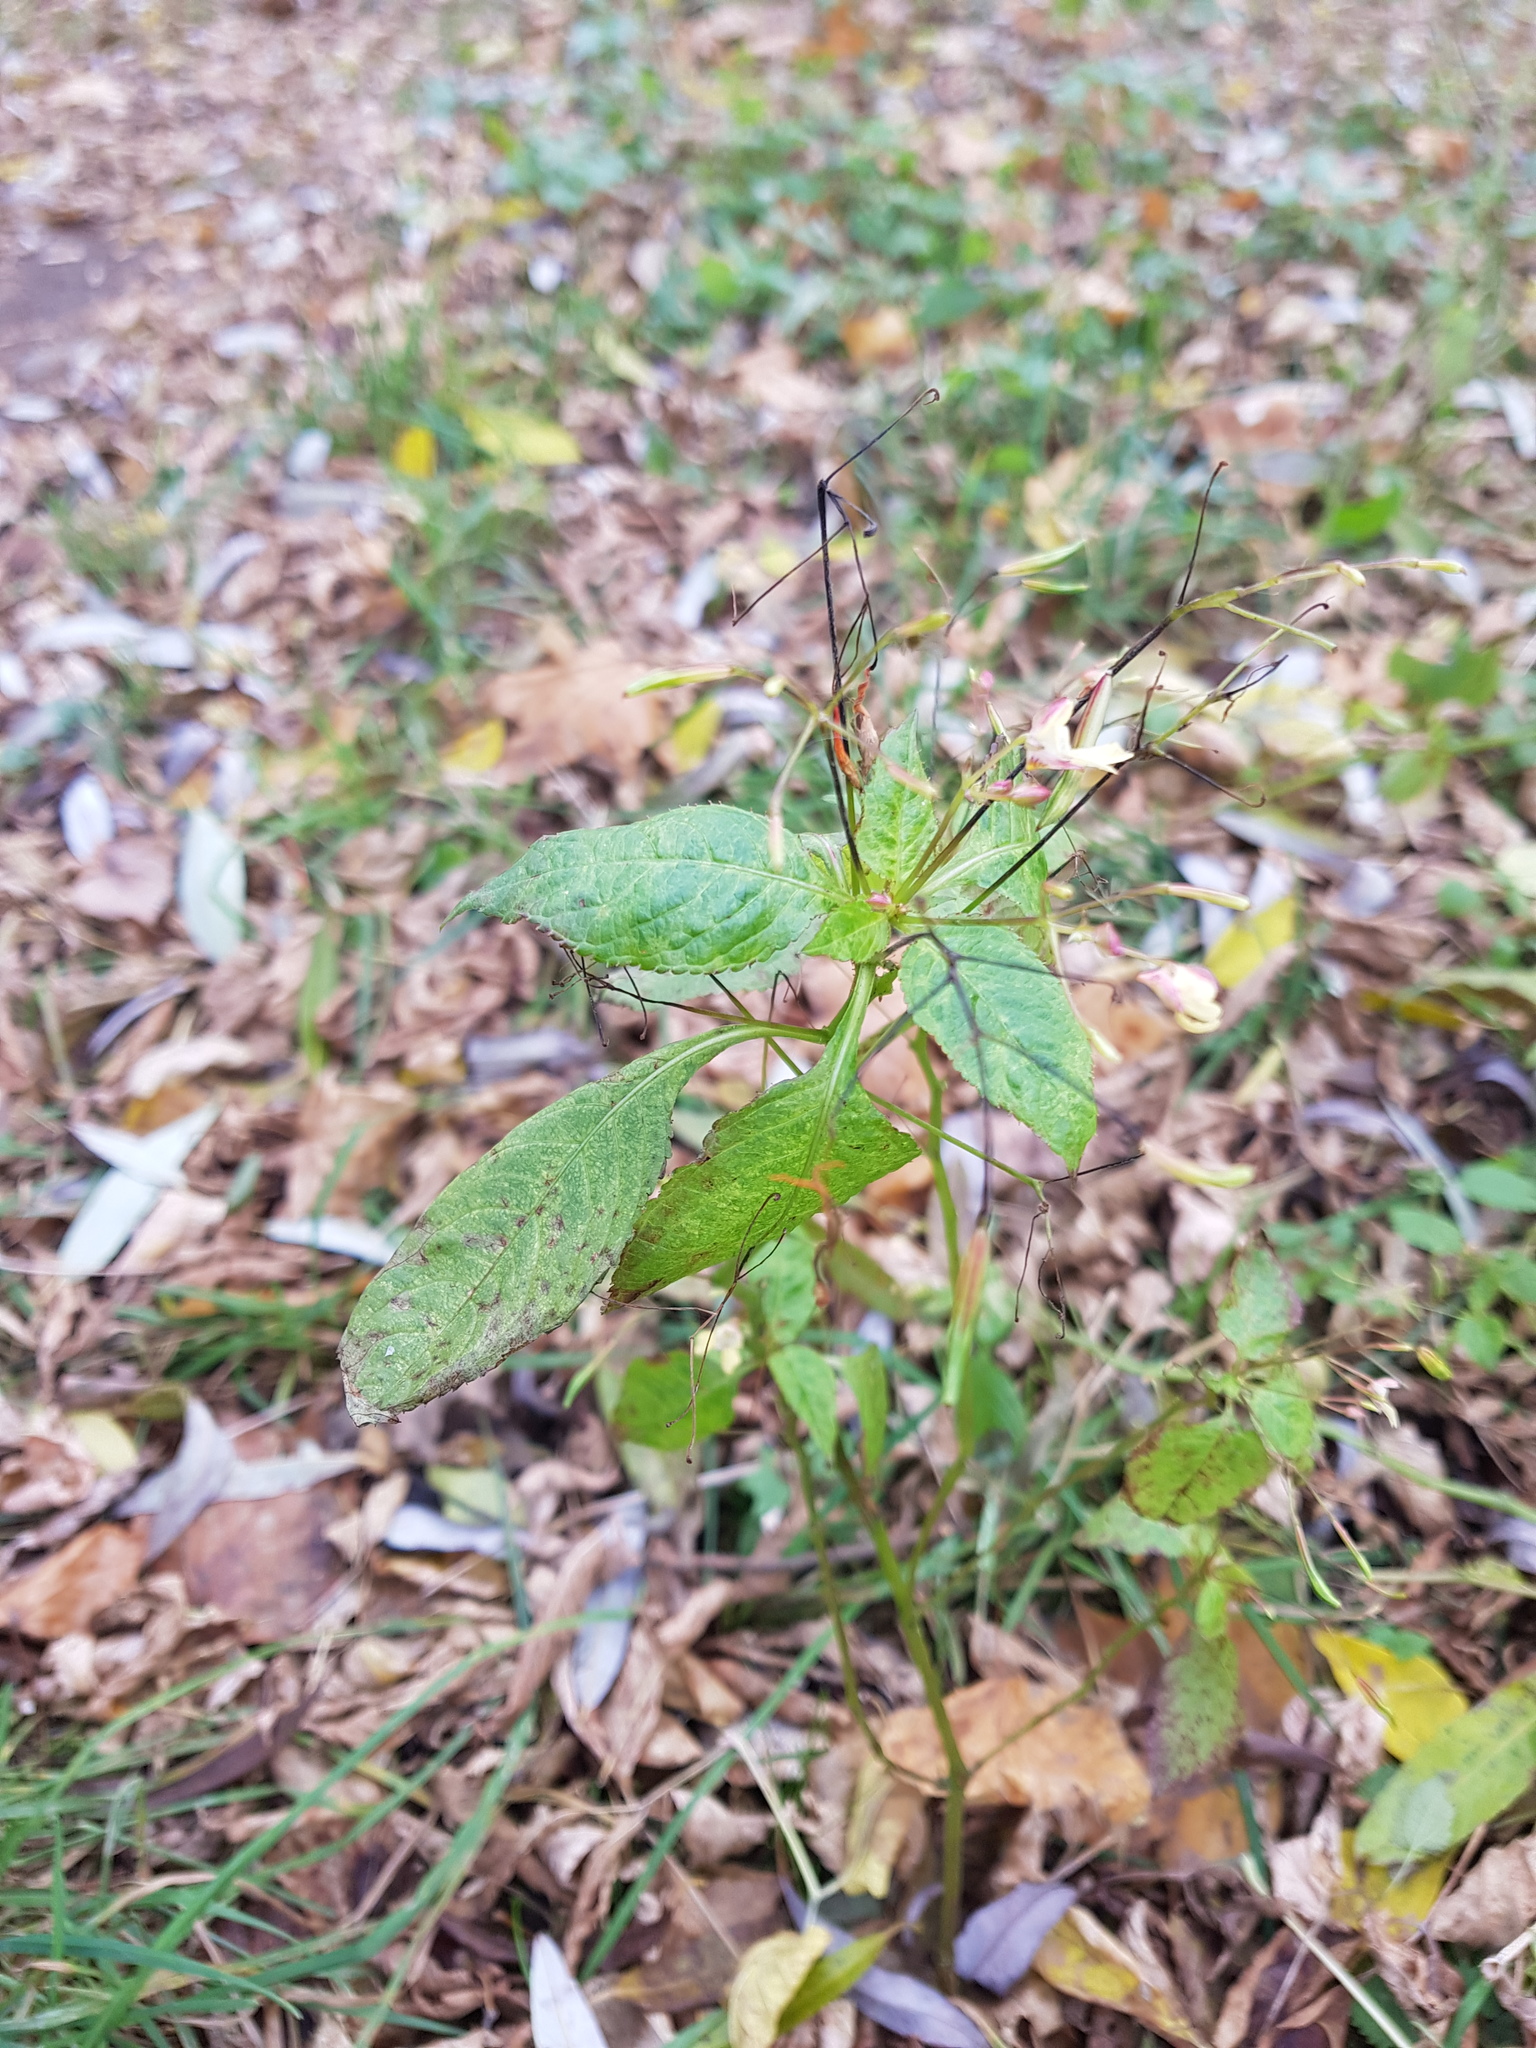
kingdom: Plantae
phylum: Tracheophyta
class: Magnoliopsida
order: Ericales
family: Balsaminaceae
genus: Impatiens
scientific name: Impatiens parviflora
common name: Small balsam
